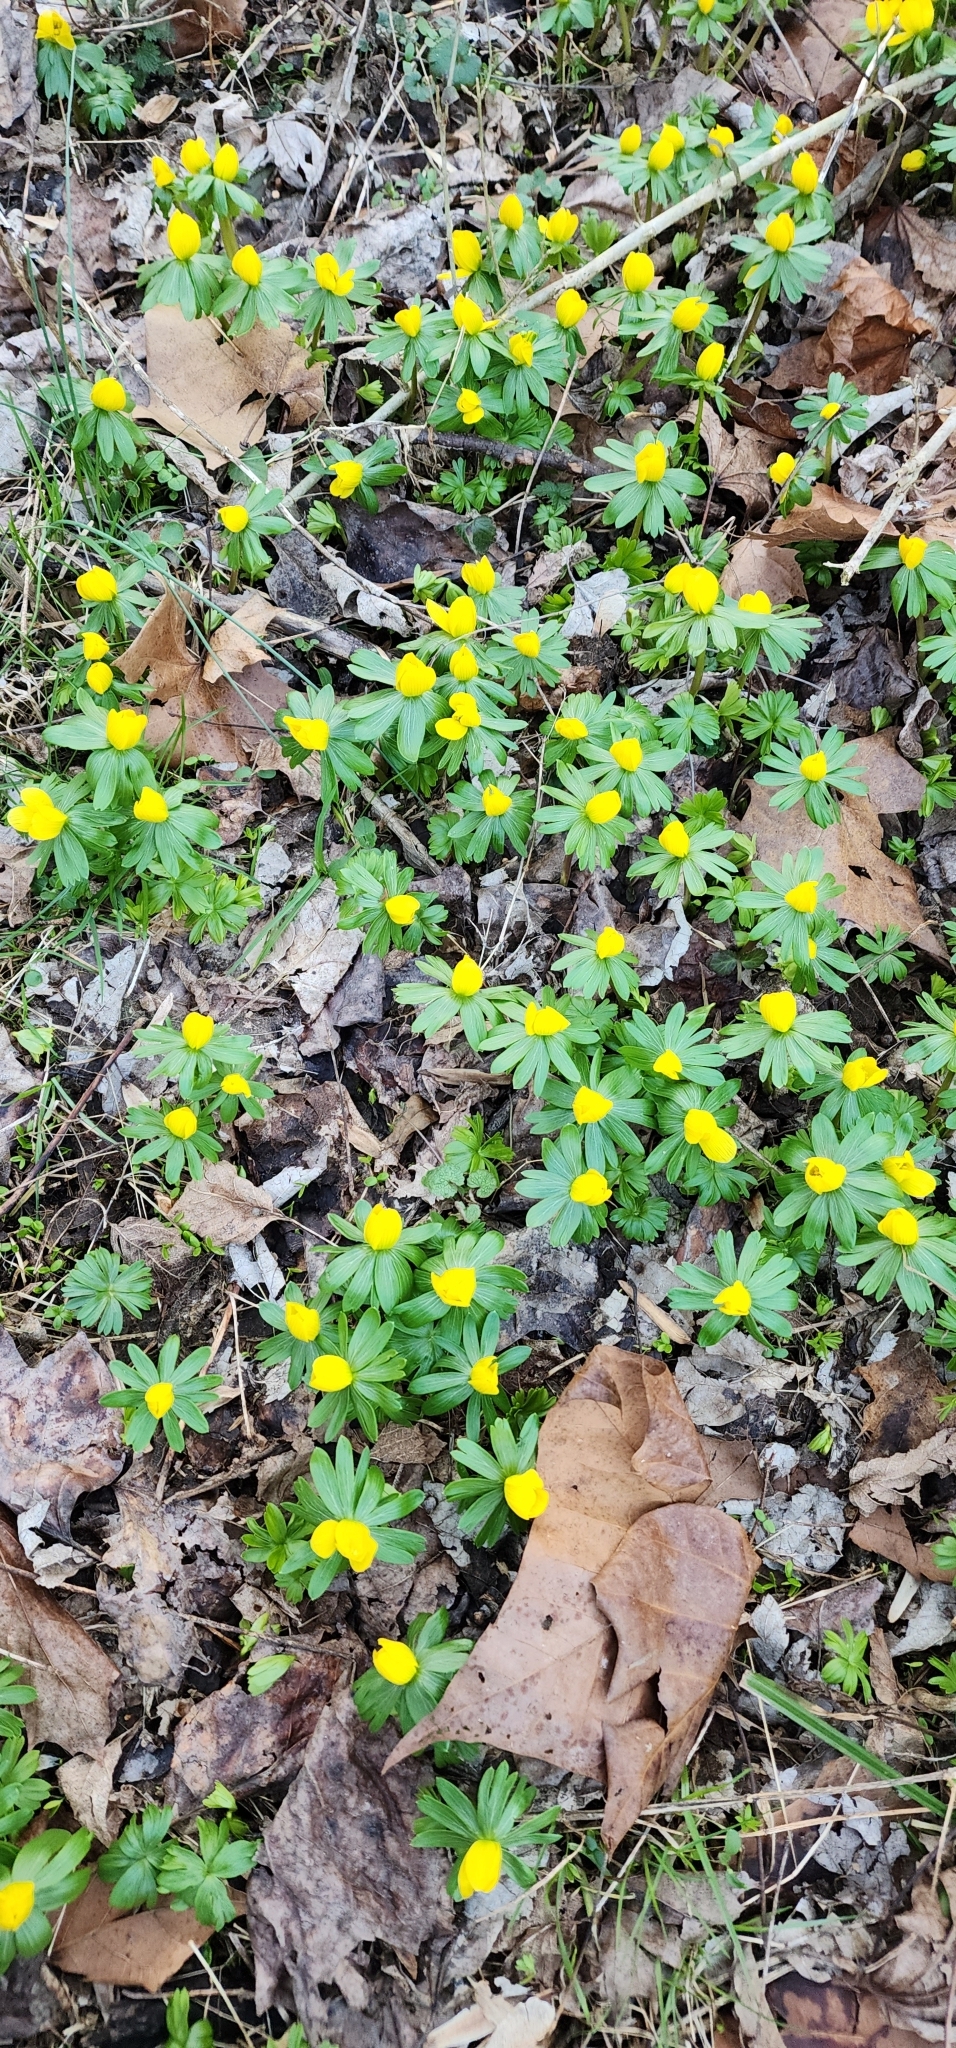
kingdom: Plantae
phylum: Tracheophyta
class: Magnoliopsida
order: Ranunculales
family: Ranunculaceae
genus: Eranthis
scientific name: Eranthis hyemalis
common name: Winter aconite
